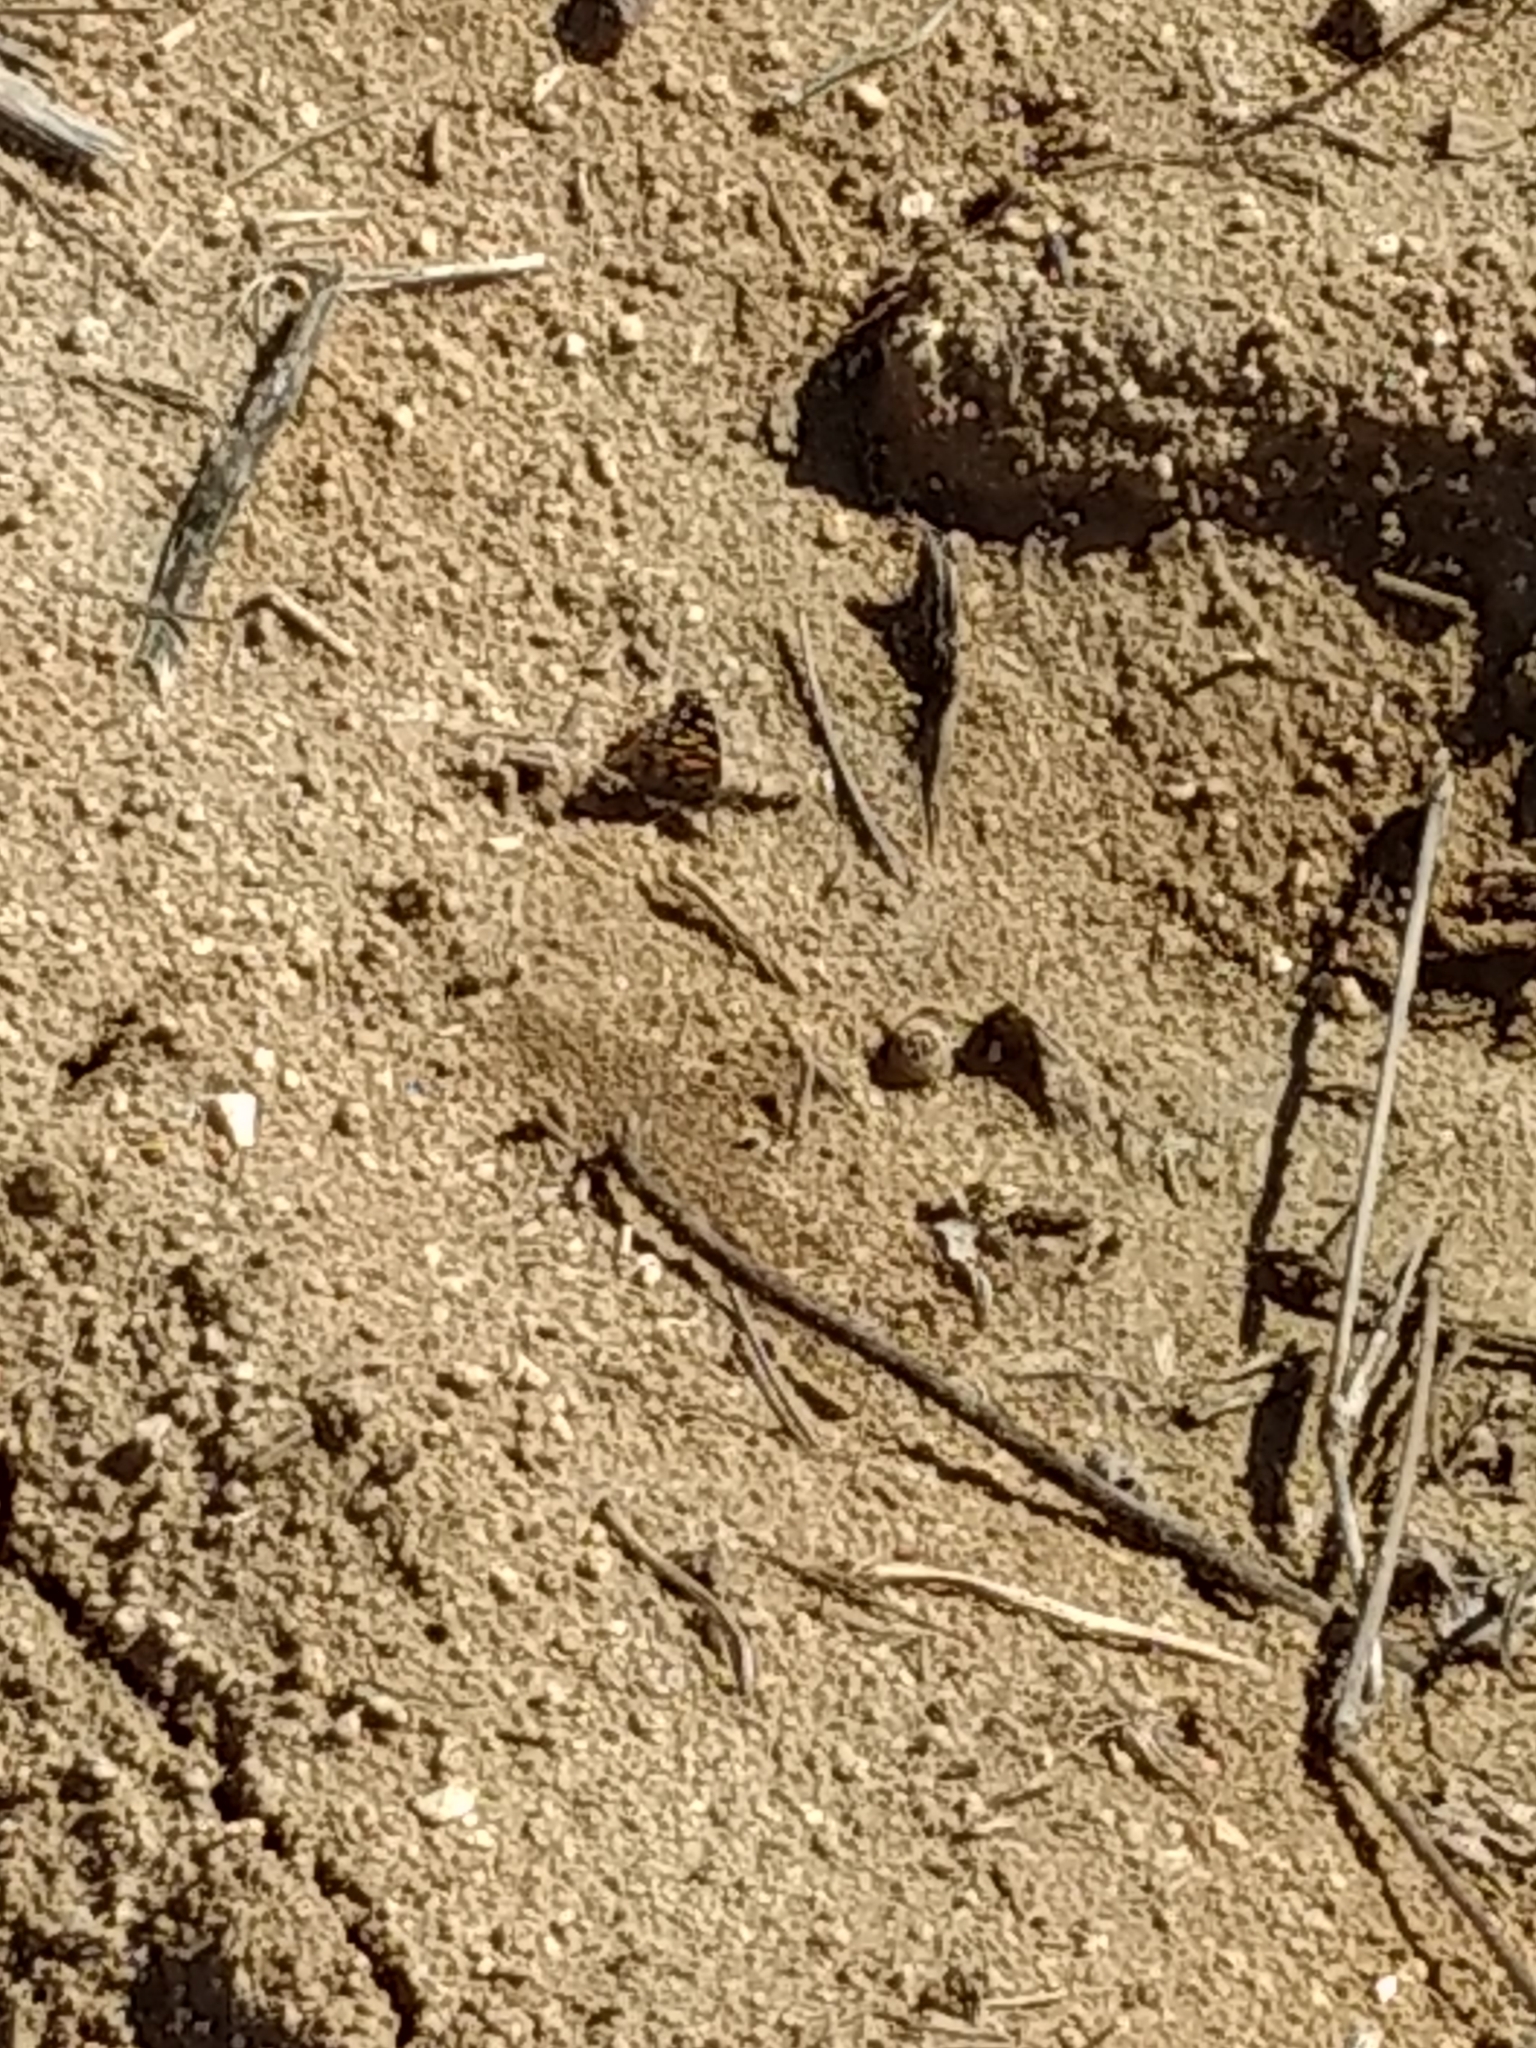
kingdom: Animalia
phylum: Arthropoda
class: Insecta
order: Lepidoptera
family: Nymphalidae
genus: Vanessa
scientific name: Vanessa cardui
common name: Painted lady
